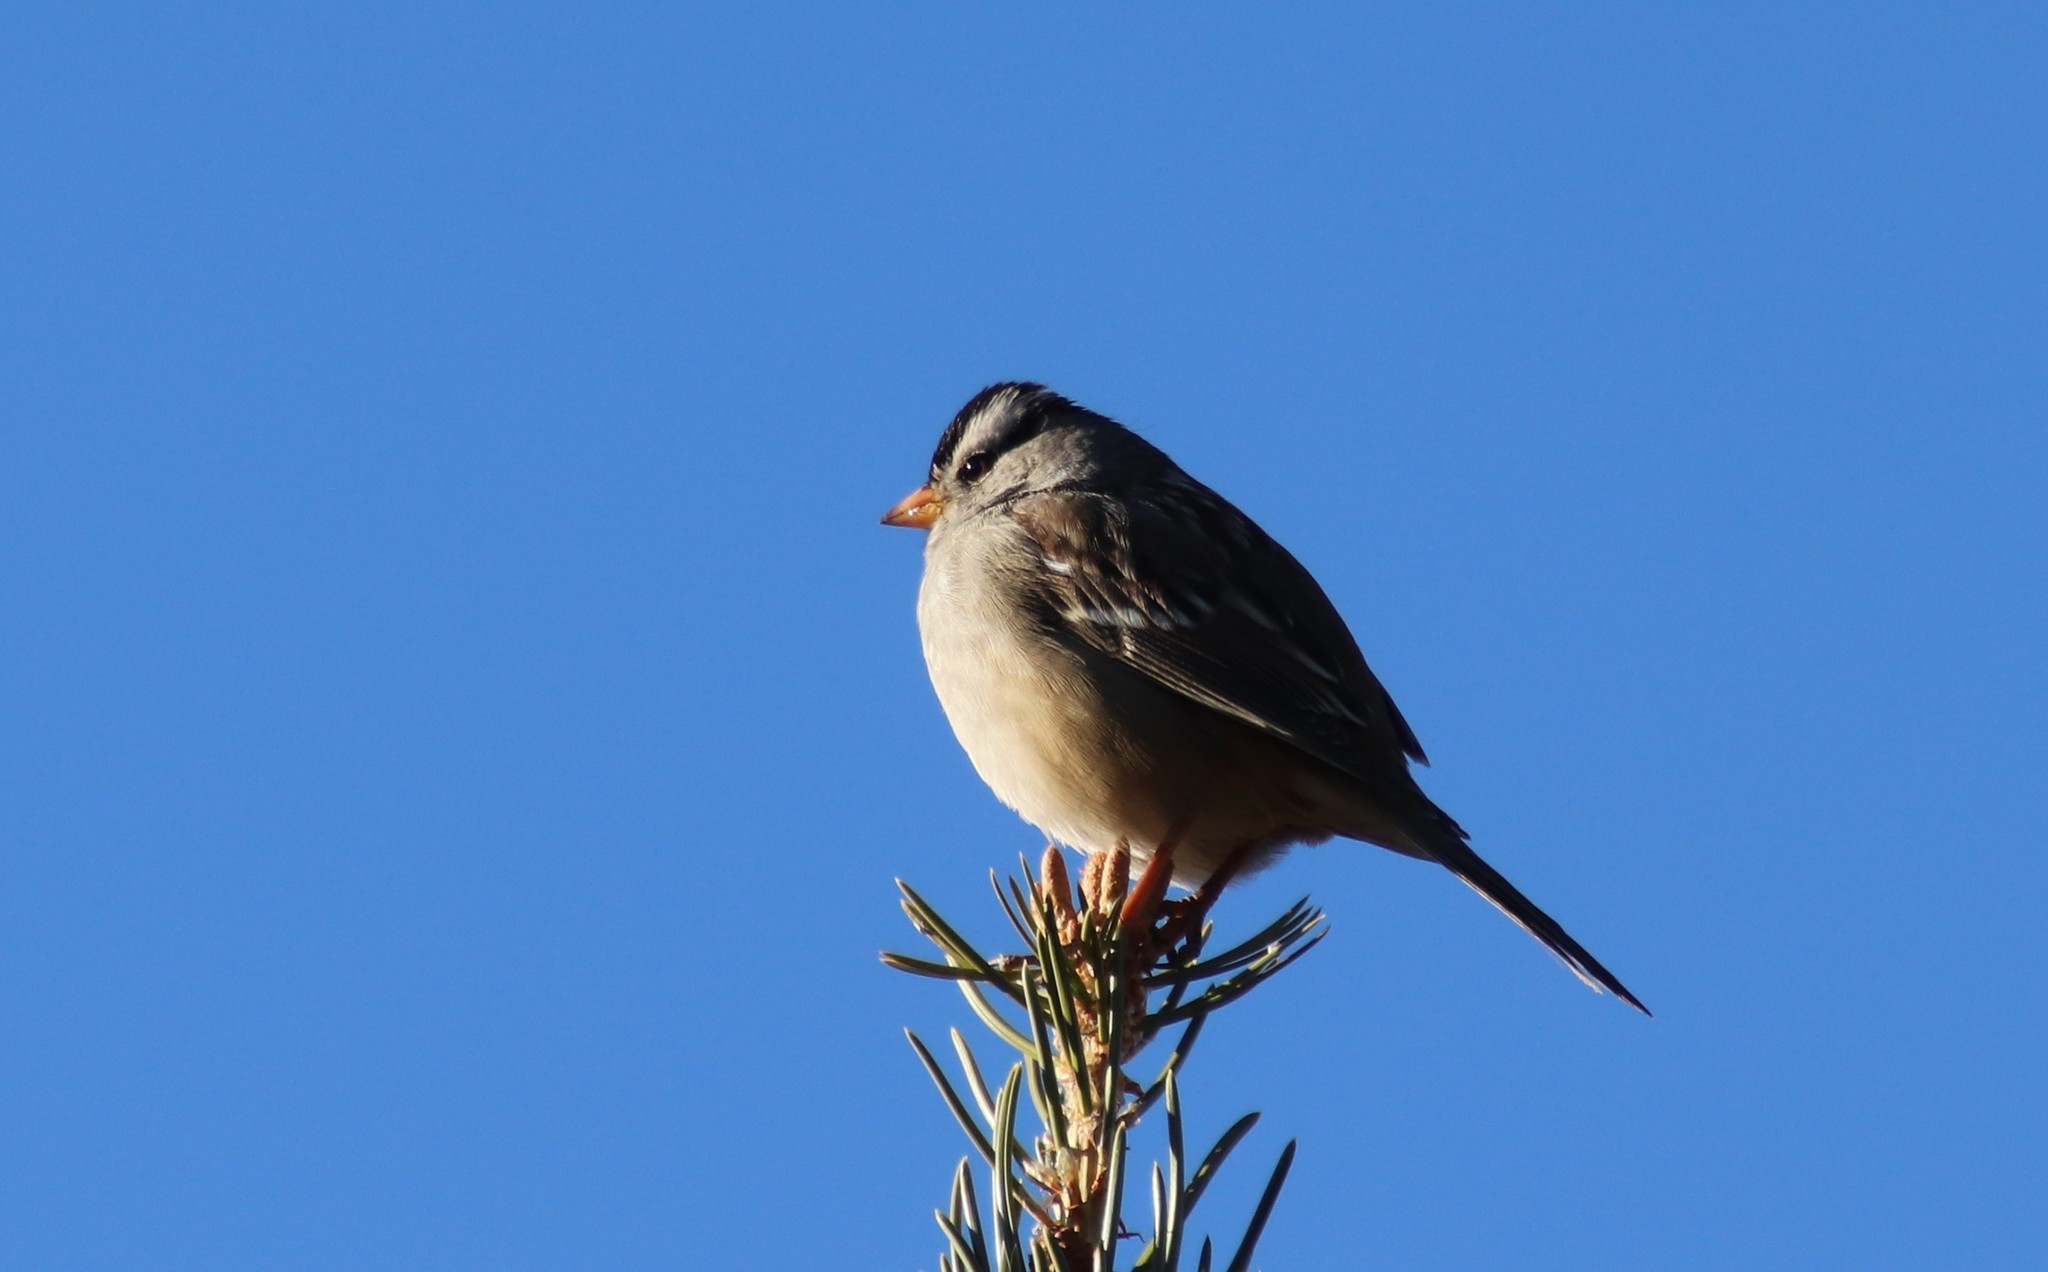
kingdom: Animalia
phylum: Chordata
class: Aves
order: Passeriformes
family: Passerellidae
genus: Zonotrichia
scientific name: Zonotrichia leucophrys
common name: White-crowned sparrow
